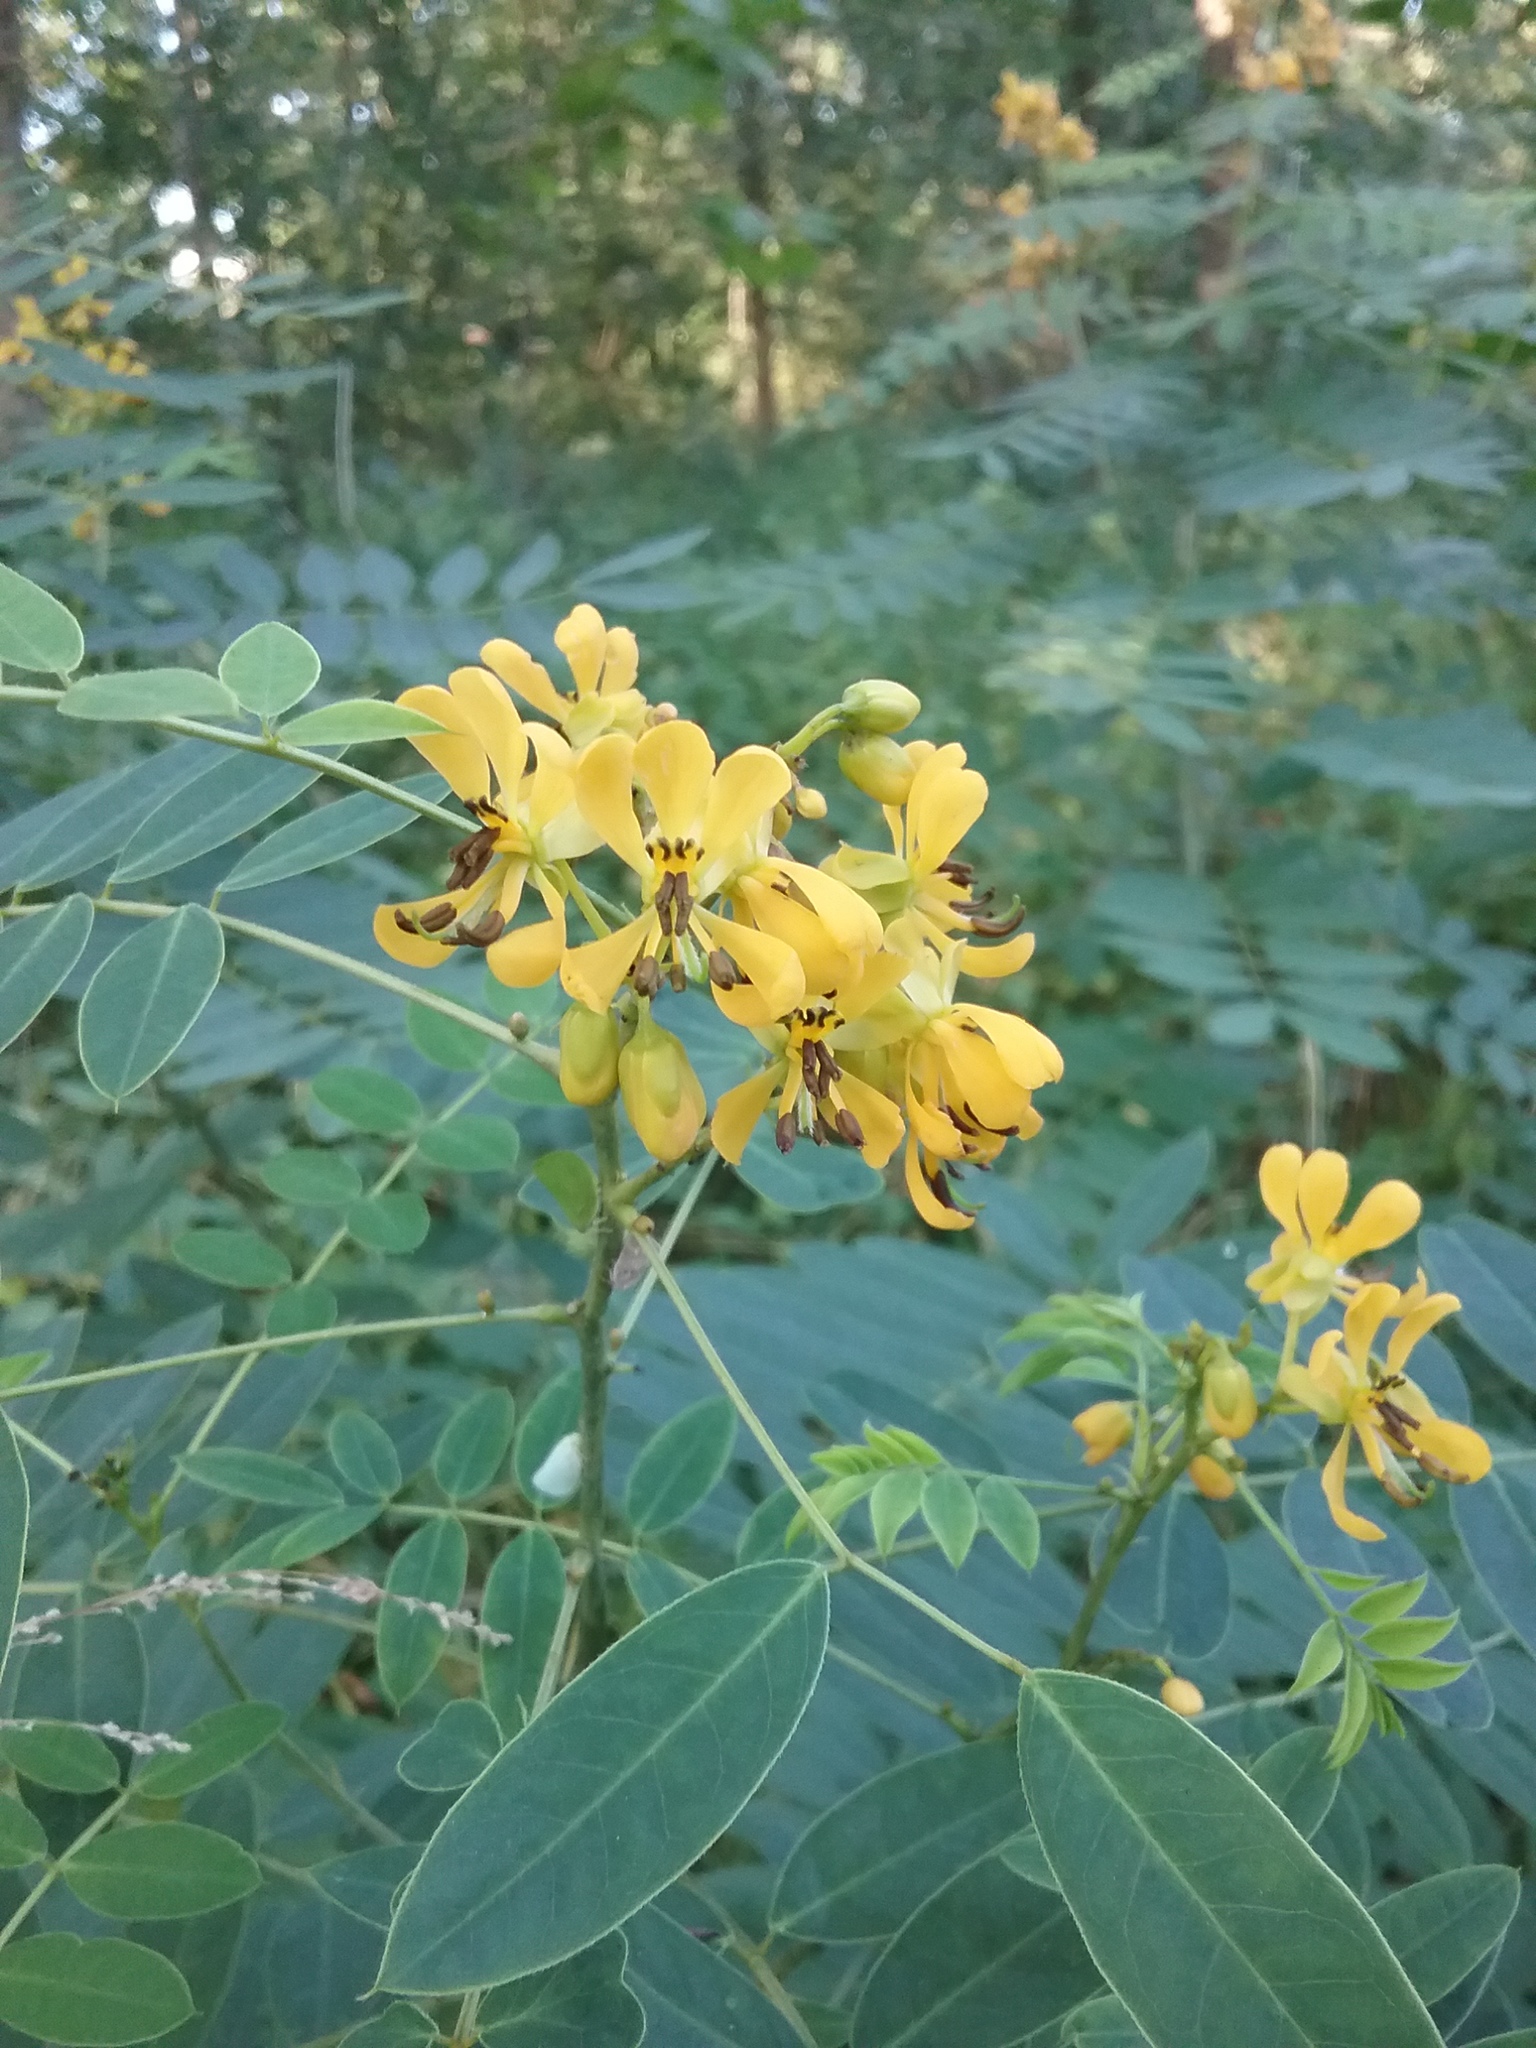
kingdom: Plantae
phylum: Tracheophyta
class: Magnoliopsida
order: Fabales
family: Fabaceae
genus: Senna
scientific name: Senna hebecarpa
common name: Wild senna
